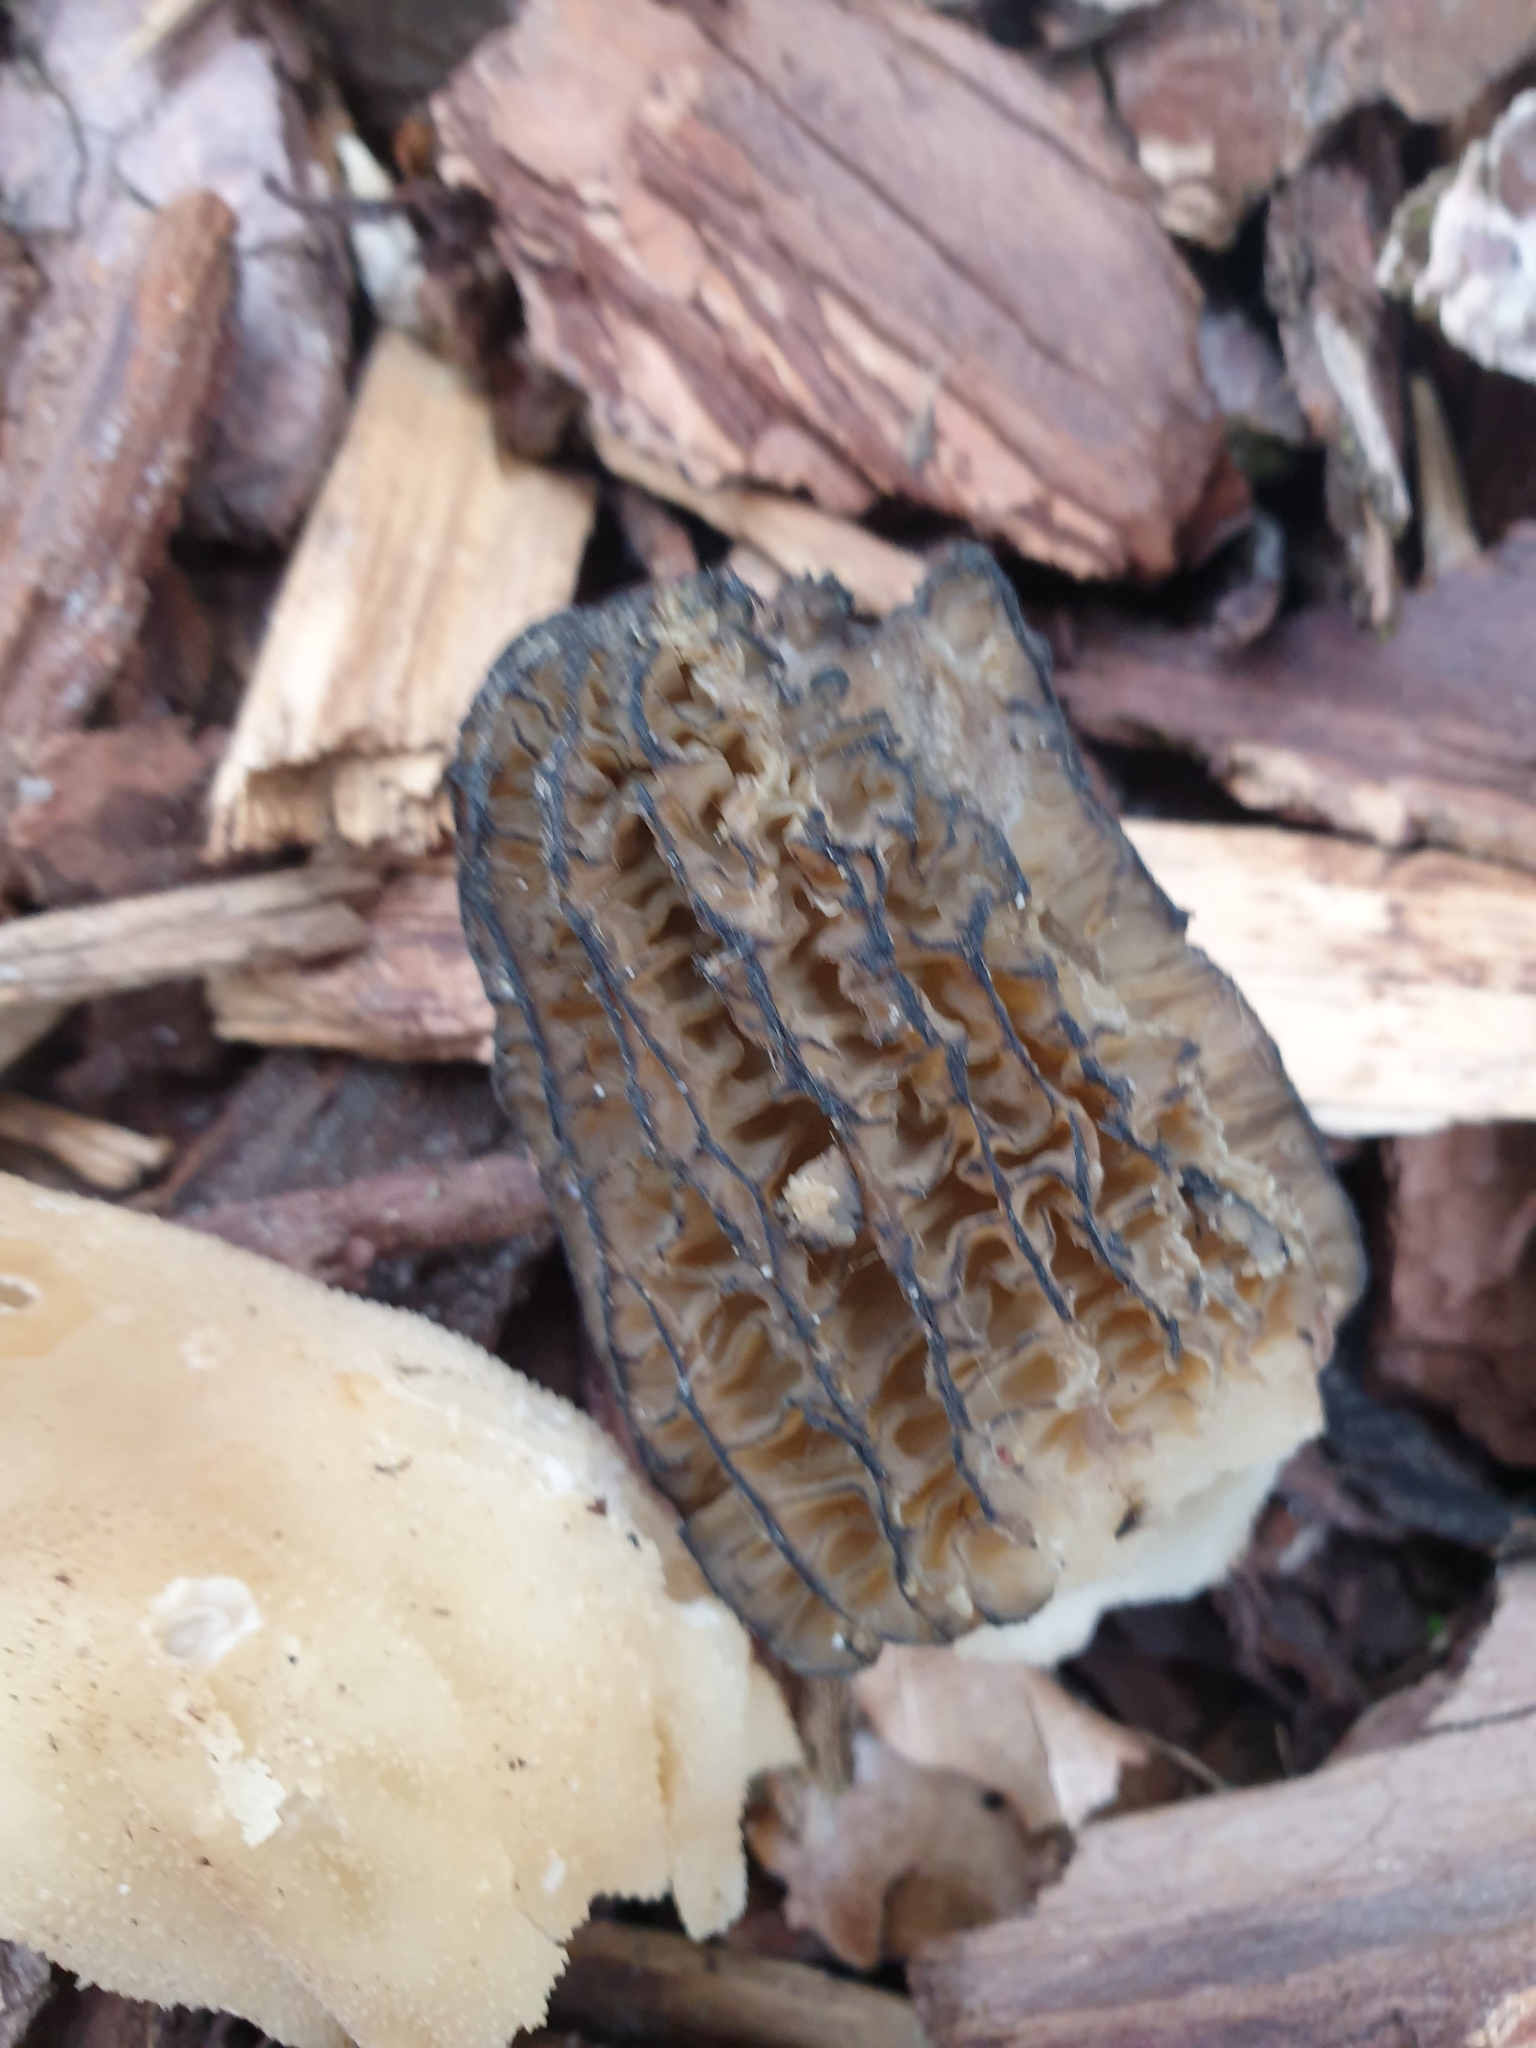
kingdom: Fungi
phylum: Ascomycota
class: Pezizomycetes
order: Pezizales
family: Morchellaceae
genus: Morchella
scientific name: Morchella importuna
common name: Landscaping black morel
